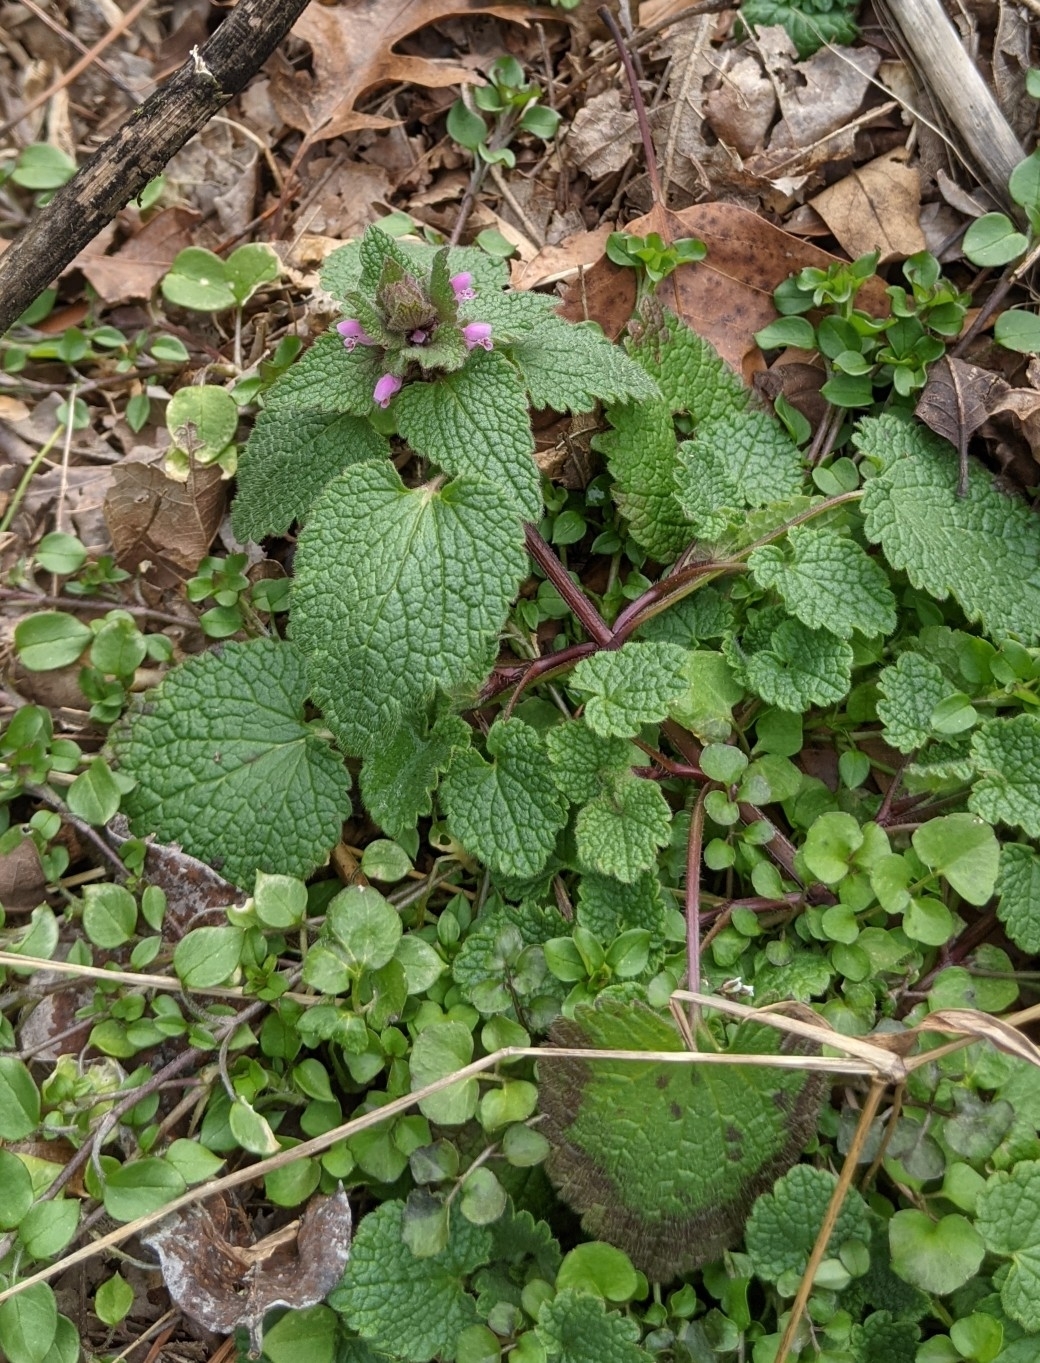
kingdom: Plantae
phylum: Tracheophyta
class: Magnoliopsida
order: Lamiales
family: Lamiaceae
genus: Lamium
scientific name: Lamium purpureum
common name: Red dead-nettle
